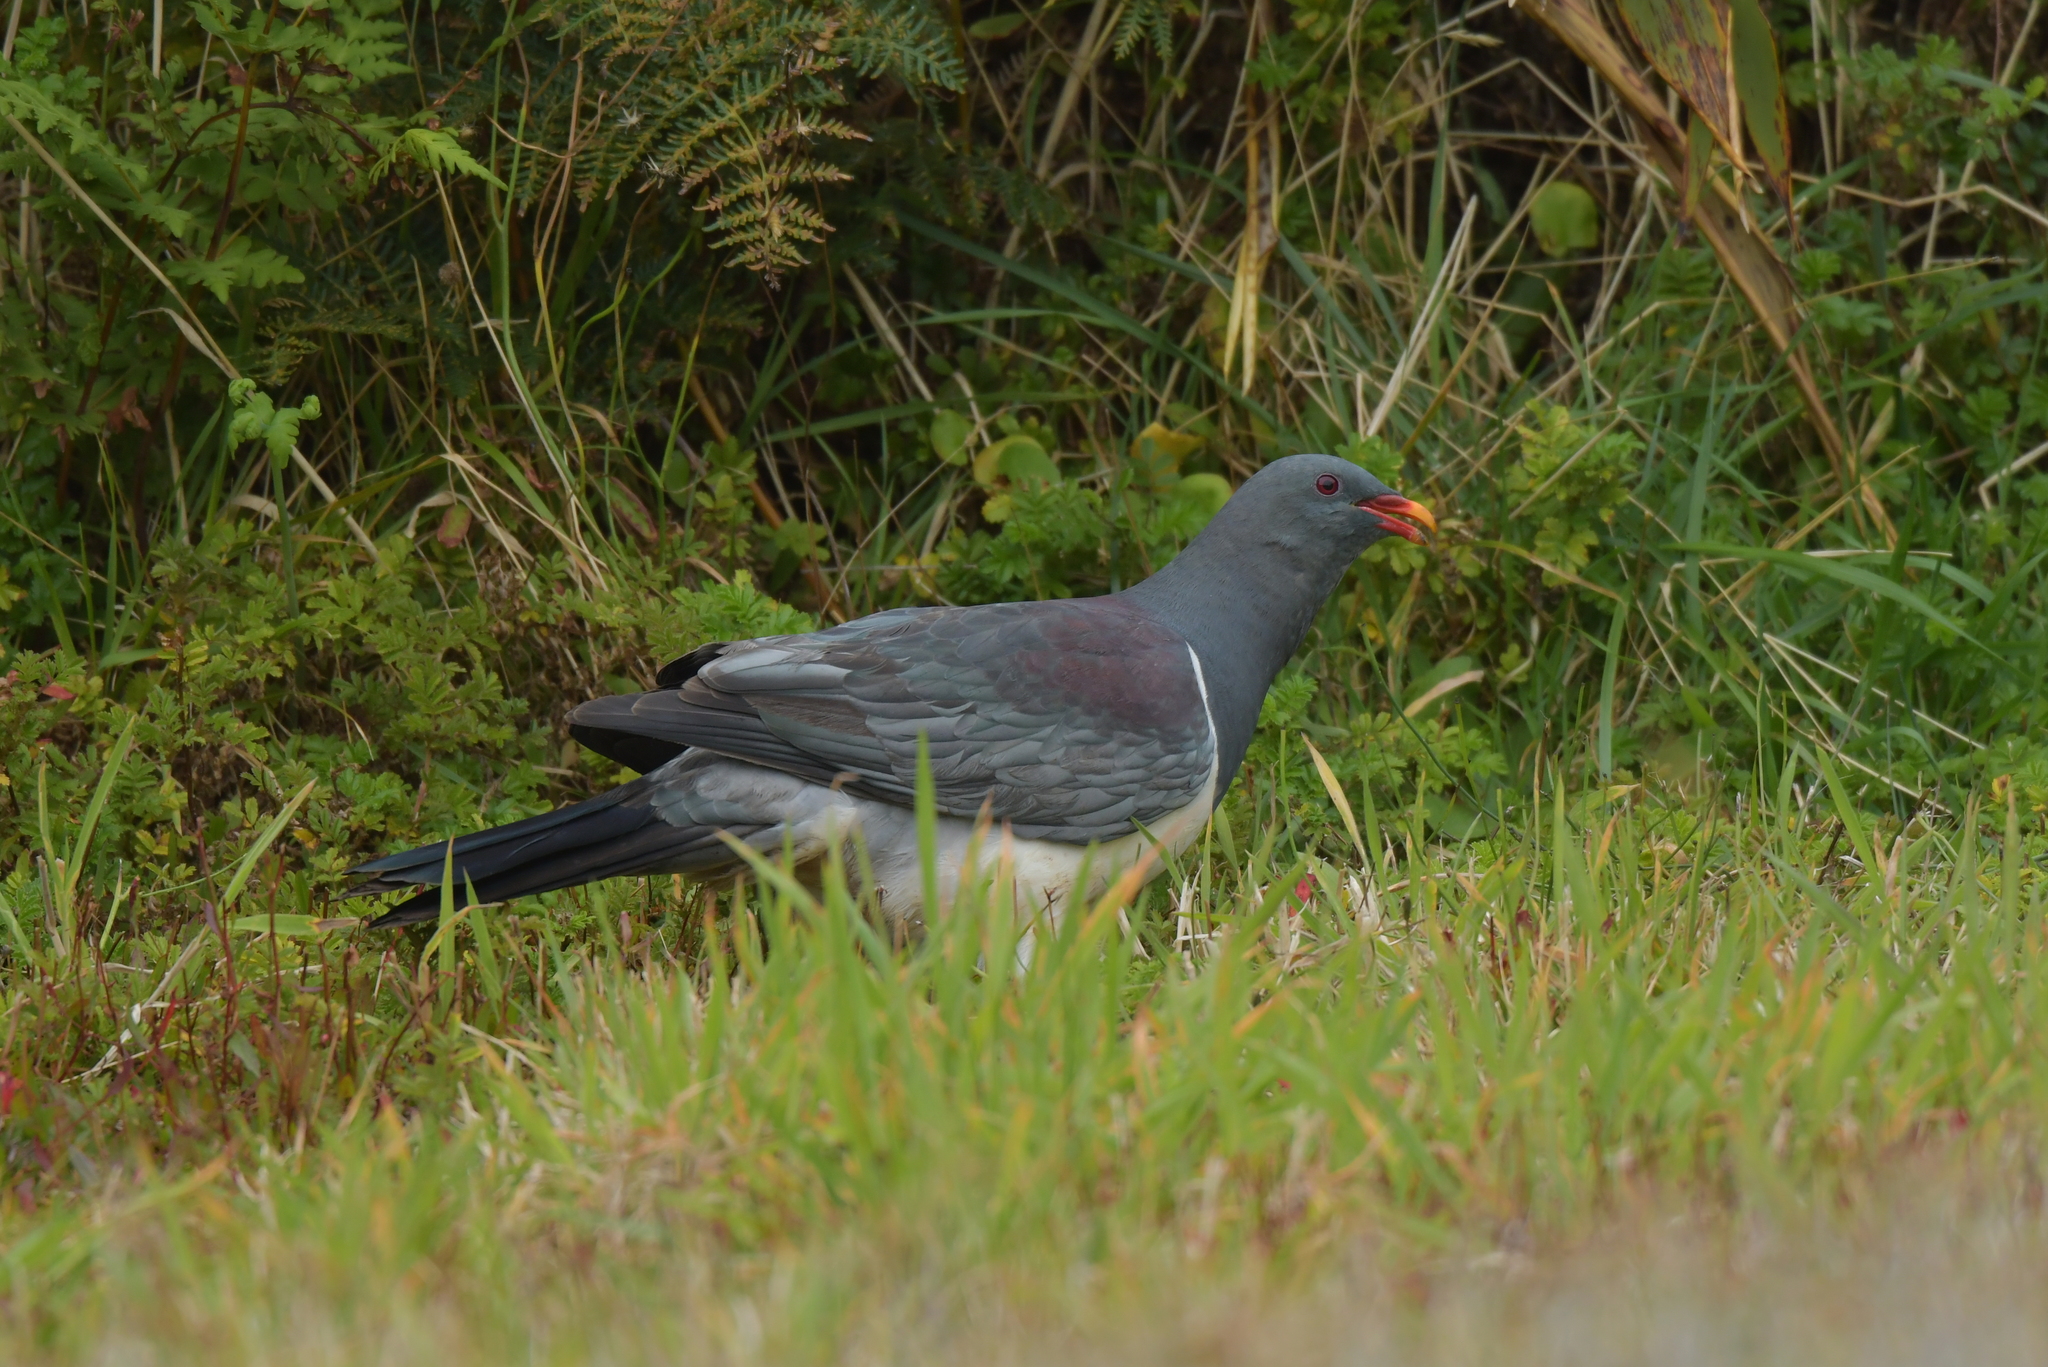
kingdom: Animalia
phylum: Chordata
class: Aves
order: Columbiformes
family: Columbidae
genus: Hemiphaga
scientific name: Hemiphaga chathamensis
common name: Chatham pigeon
